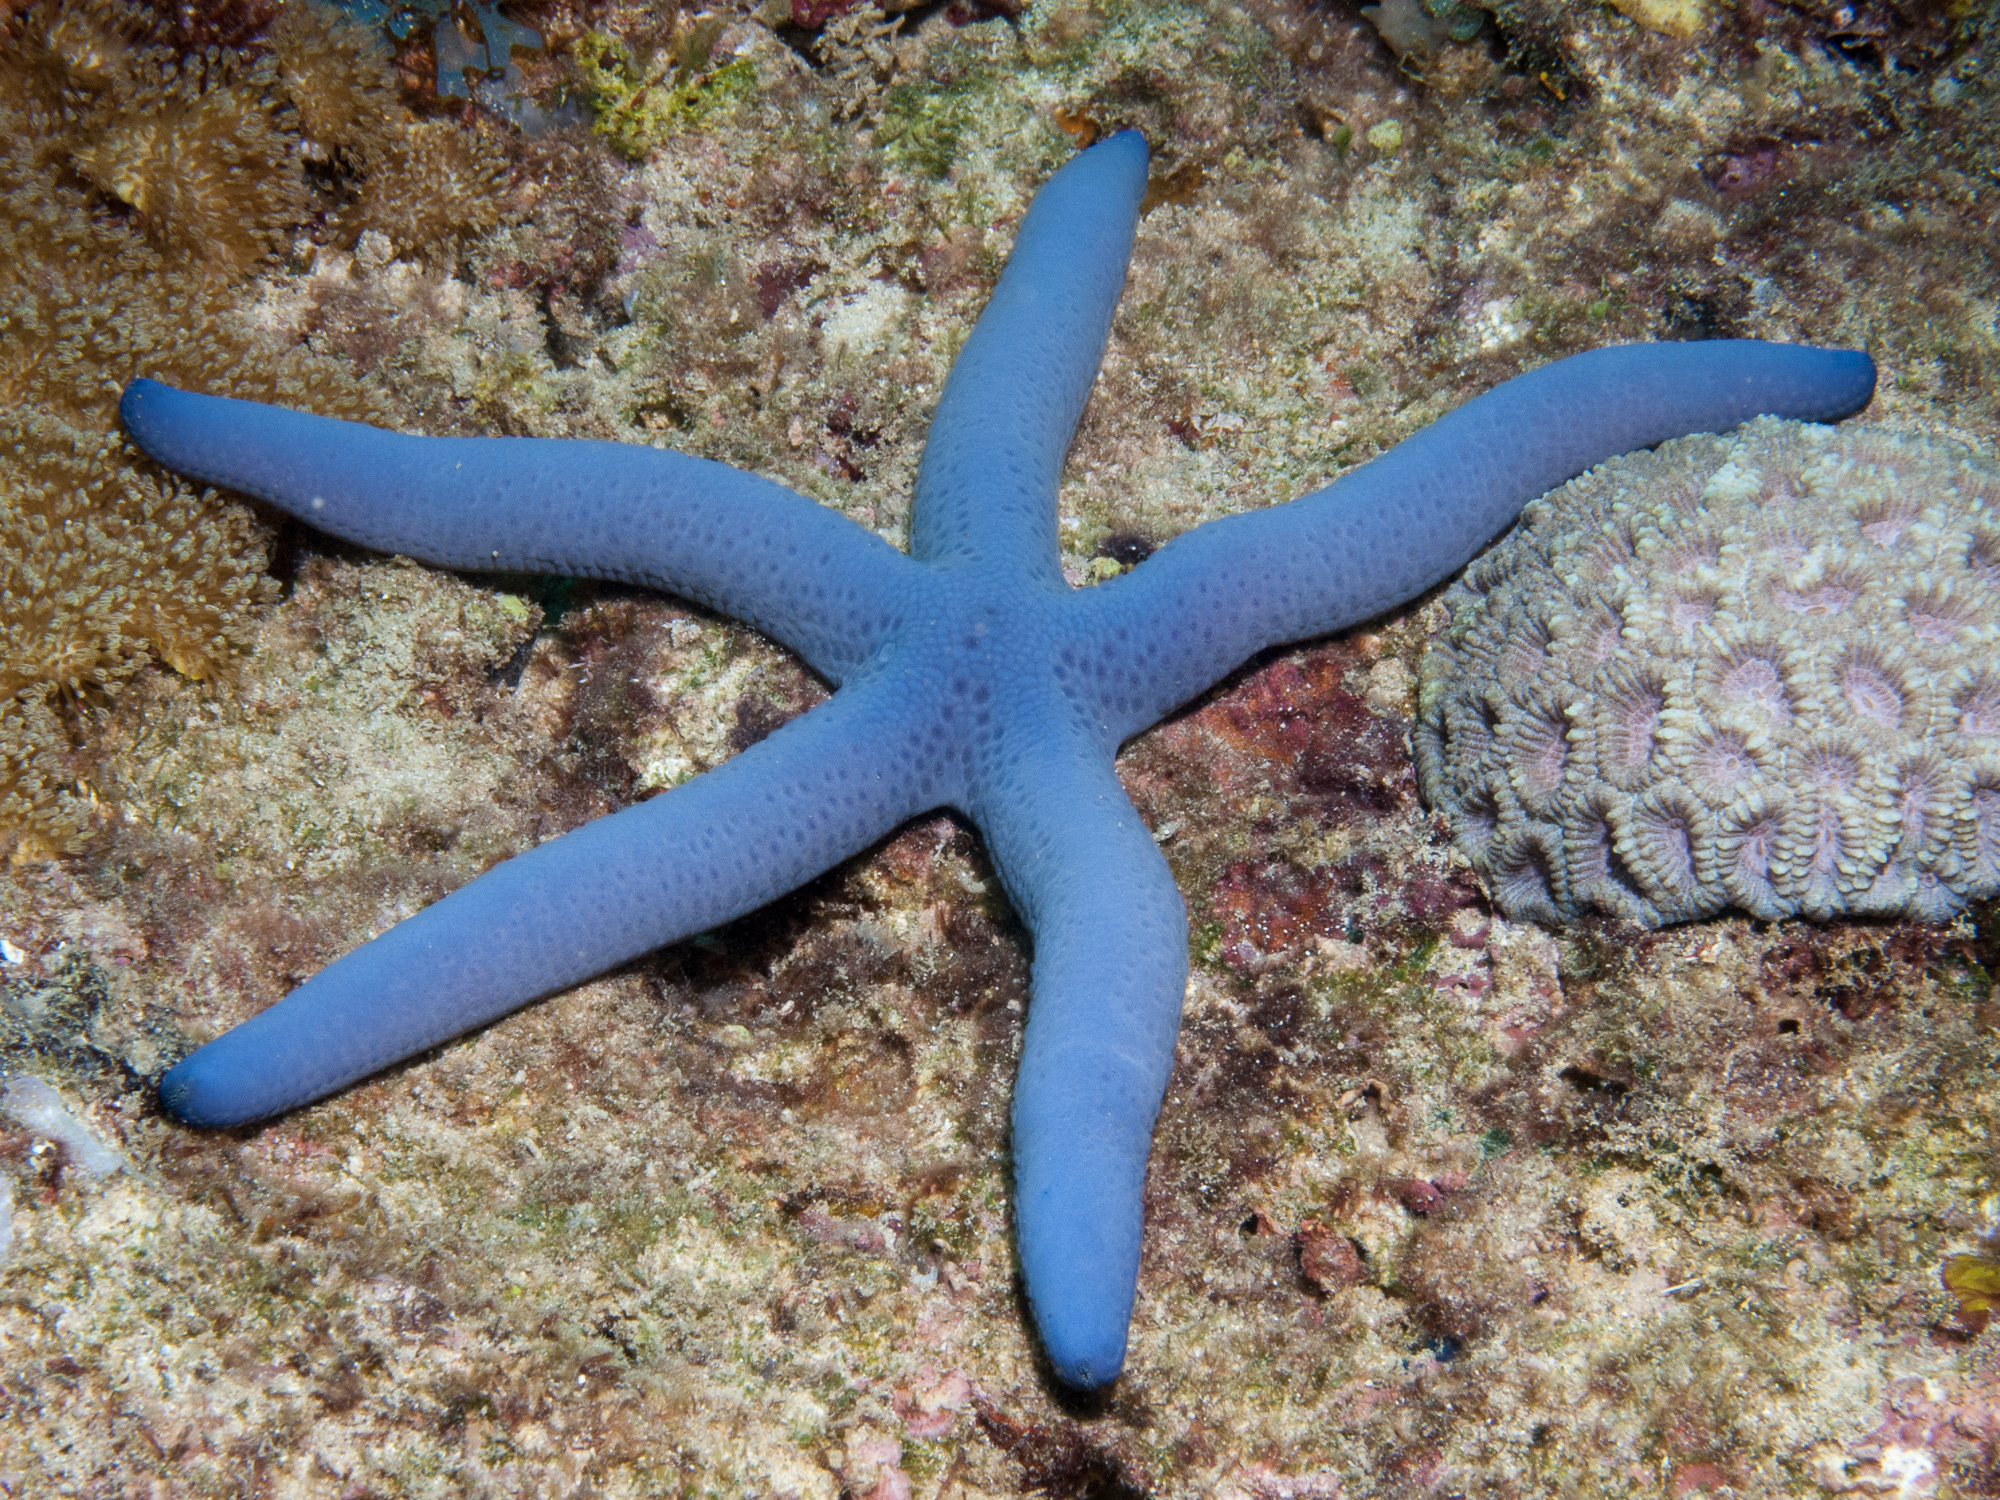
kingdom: Animalia
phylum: Echinodermata
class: Asteroidea
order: Valvatida
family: Ophidiasteridae
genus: Linckia
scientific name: Linckia laevigata
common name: Azure sea star
